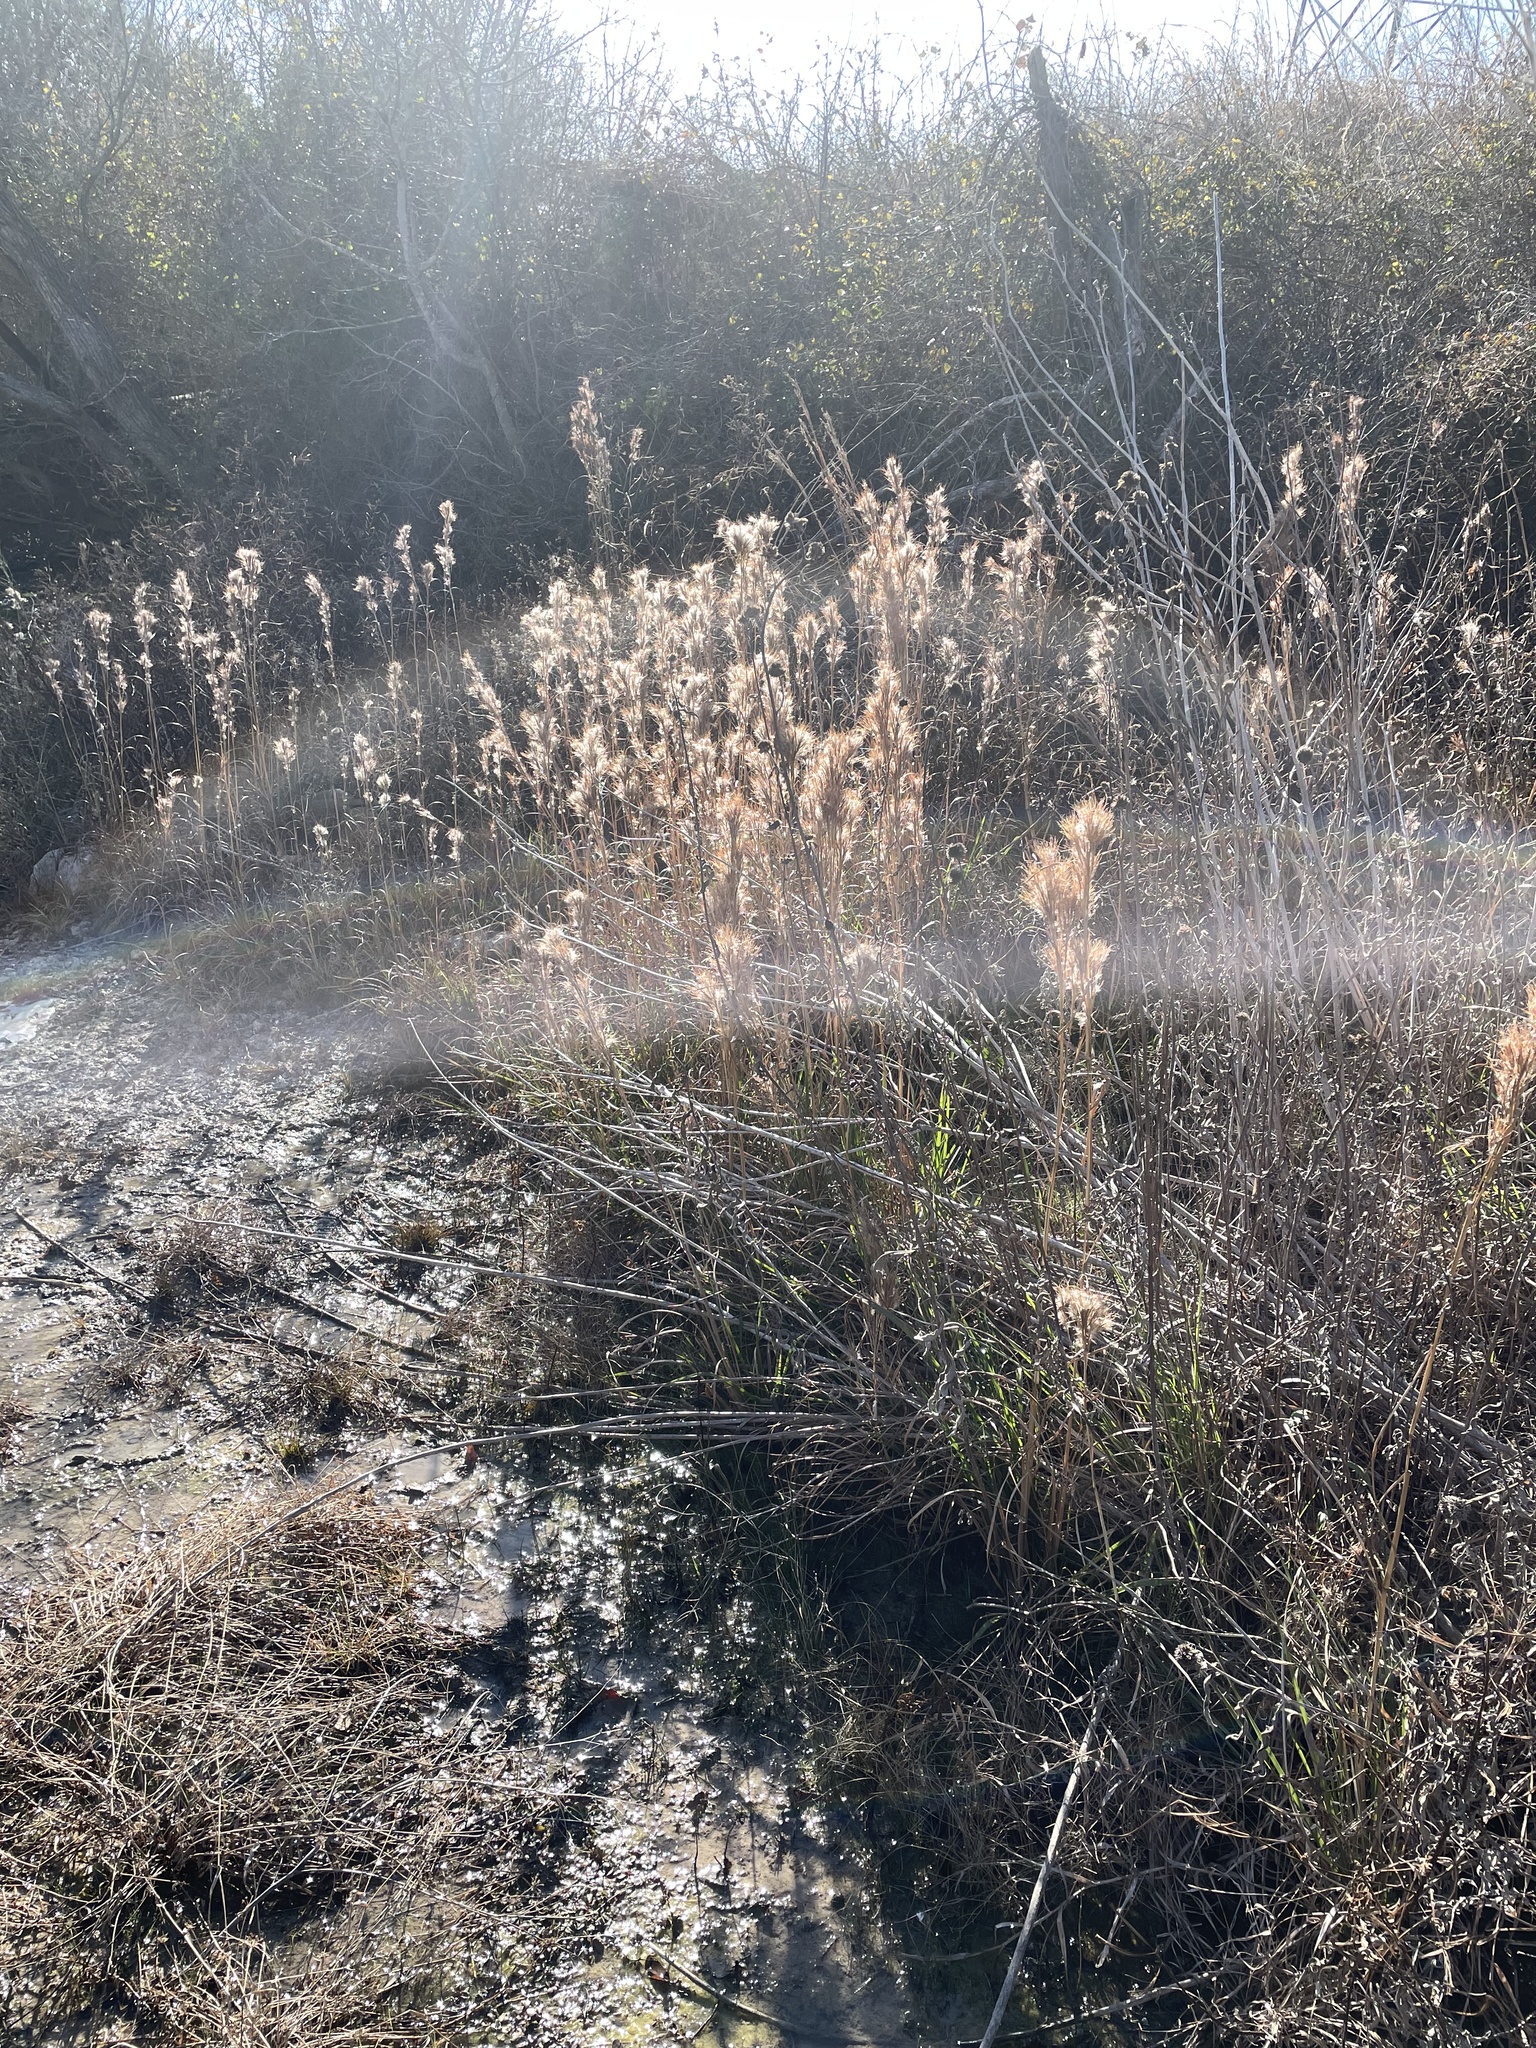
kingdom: Plantae
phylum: Tracheophyta
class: Liliopsida
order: Poales
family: Poaceae
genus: Andropogon
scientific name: Andropogon tenuispatheus
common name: Bushy bluestem
